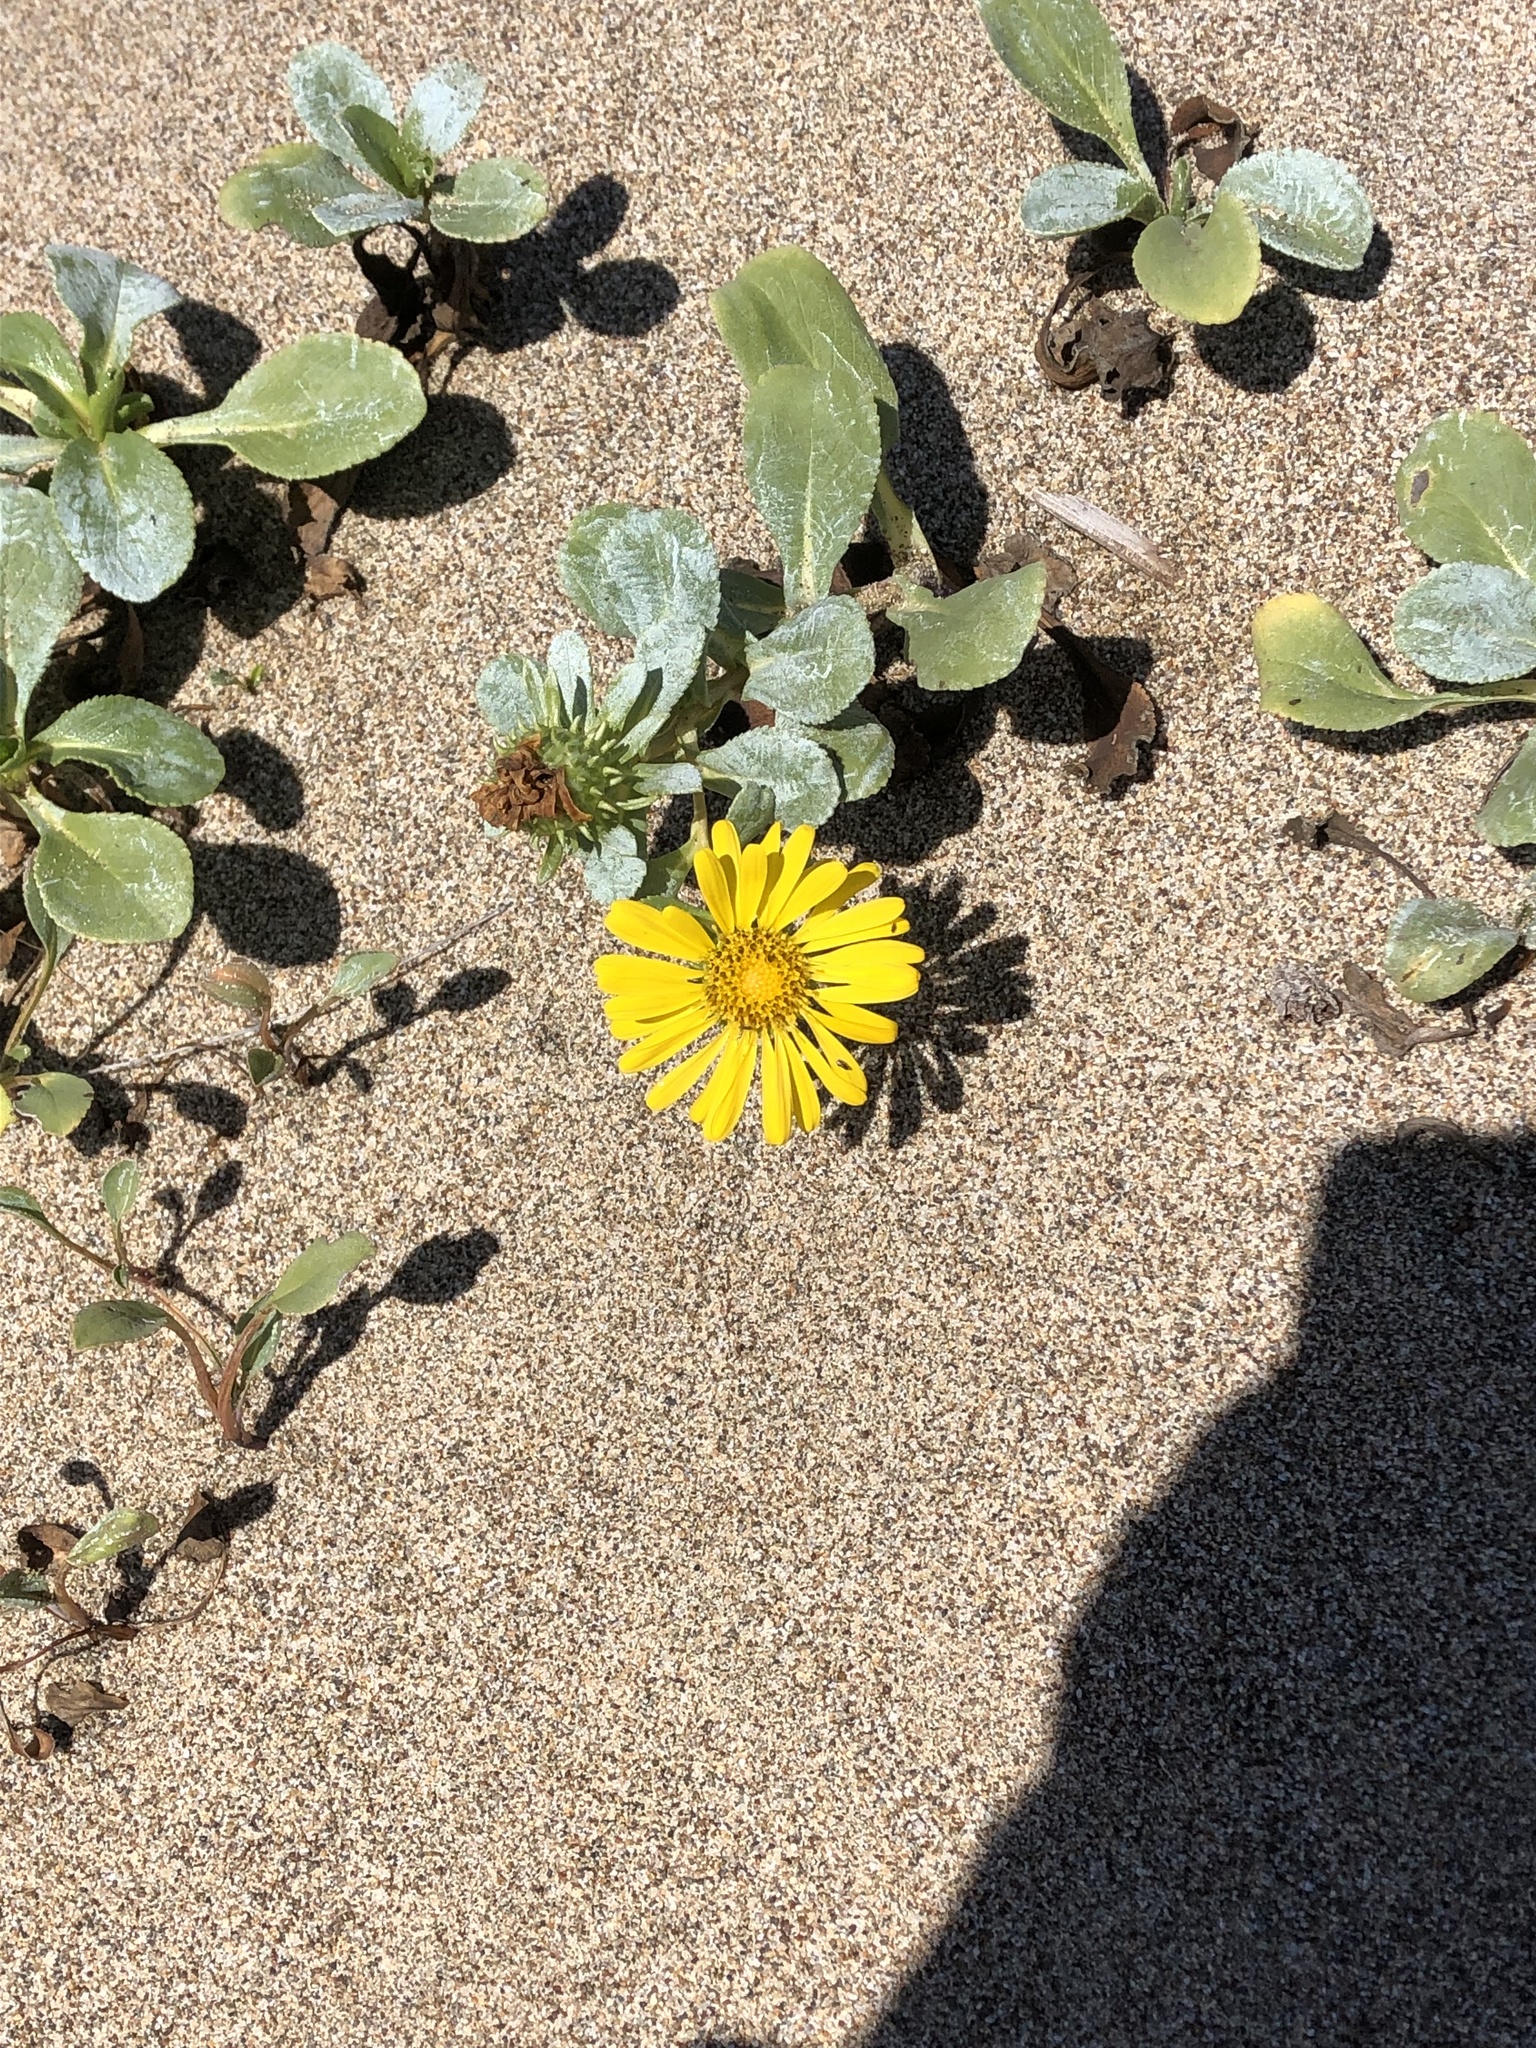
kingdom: Plantae
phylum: Tracheophyta
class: Magnoliopsida
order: Asterales
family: Asteraceae
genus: Grindelia
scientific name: Grindelia hirsutula
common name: Hairy gumweed
